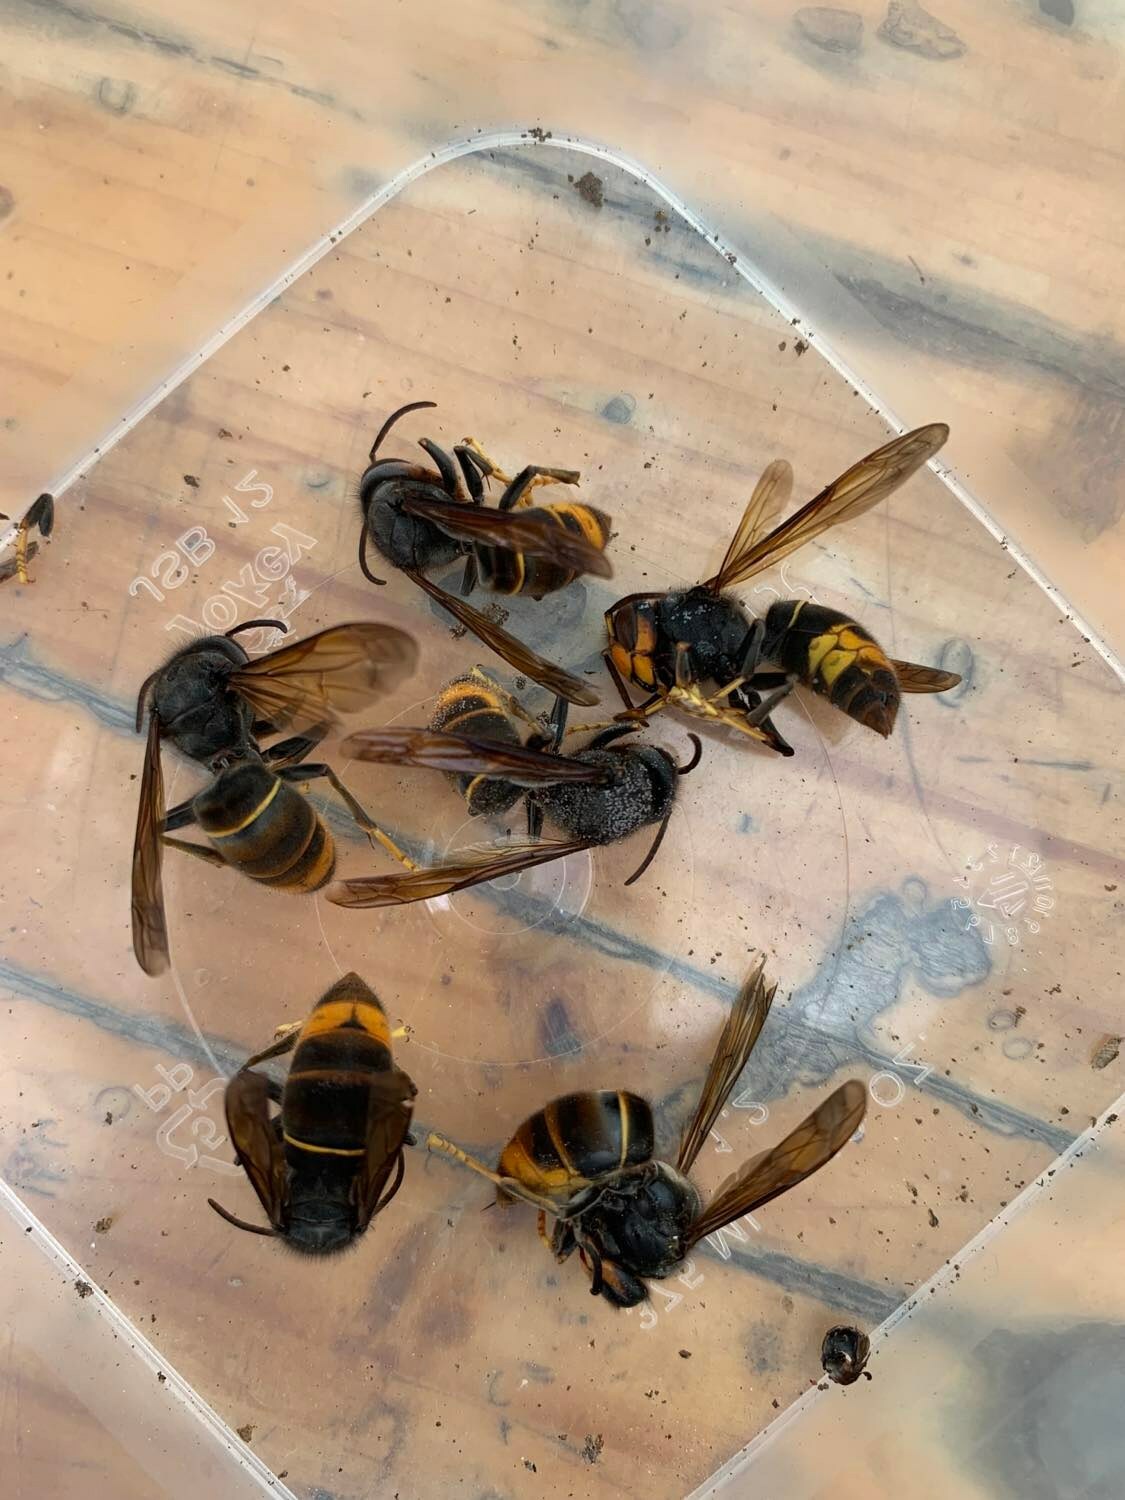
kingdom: Animalia
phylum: Arthropoda
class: Insecta
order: Hymenoptera
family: Vespidae
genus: Vespa
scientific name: Vespa velutina
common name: Asian hornet
